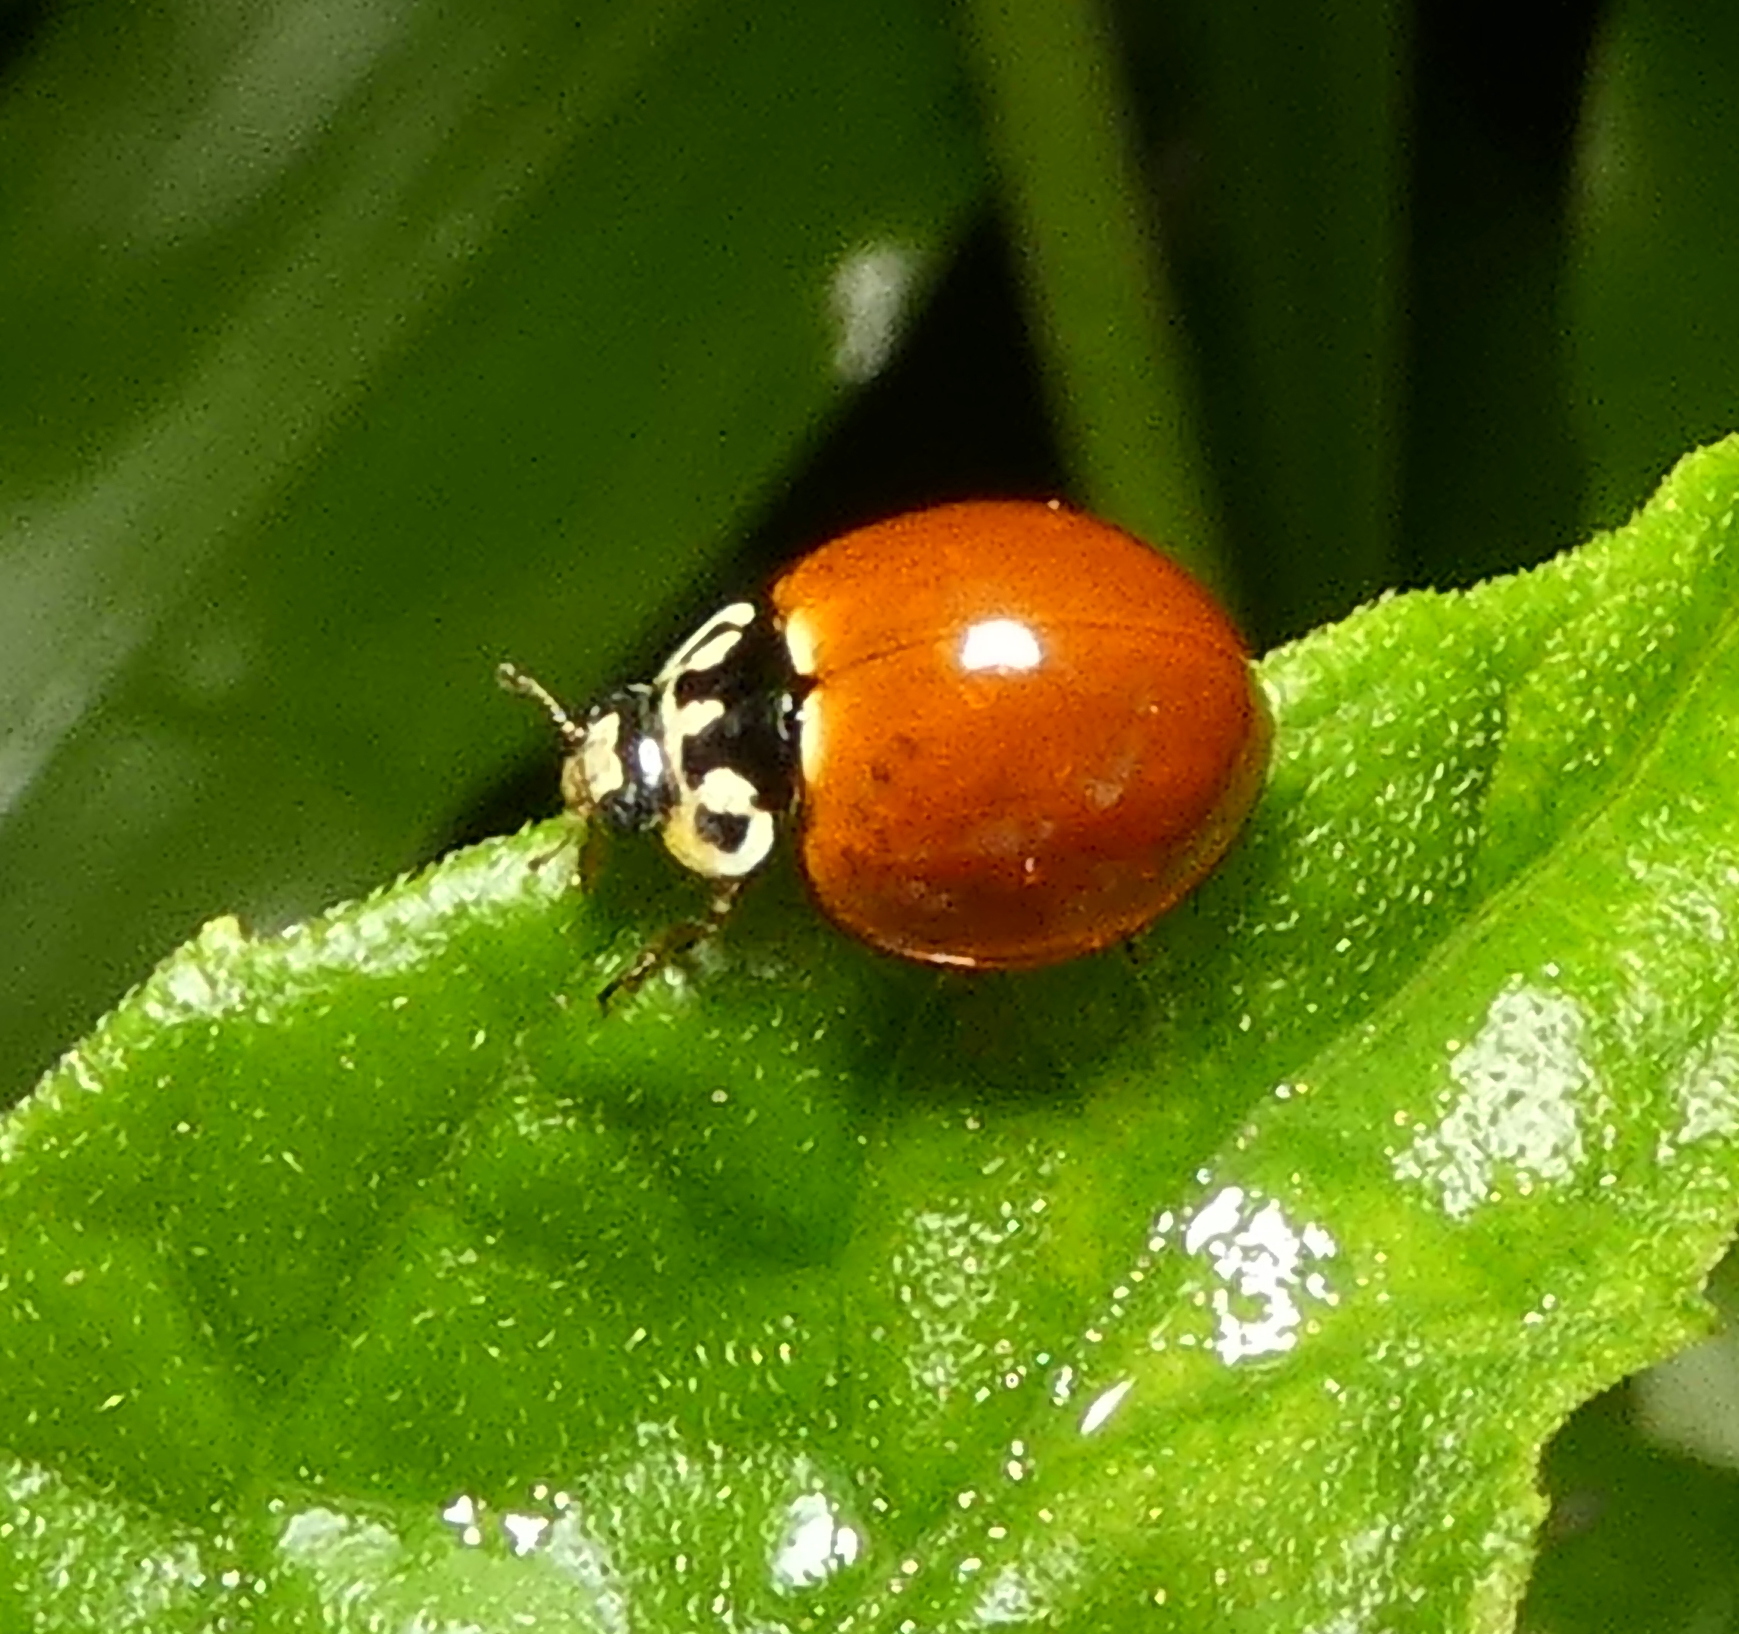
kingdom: Animalia
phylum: Arthropoda
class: Insecta
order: Coleoptera
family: Coccinellidae
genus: Cycloneda
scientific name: Cycloneda sanguinea
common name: Ladybird beetle
